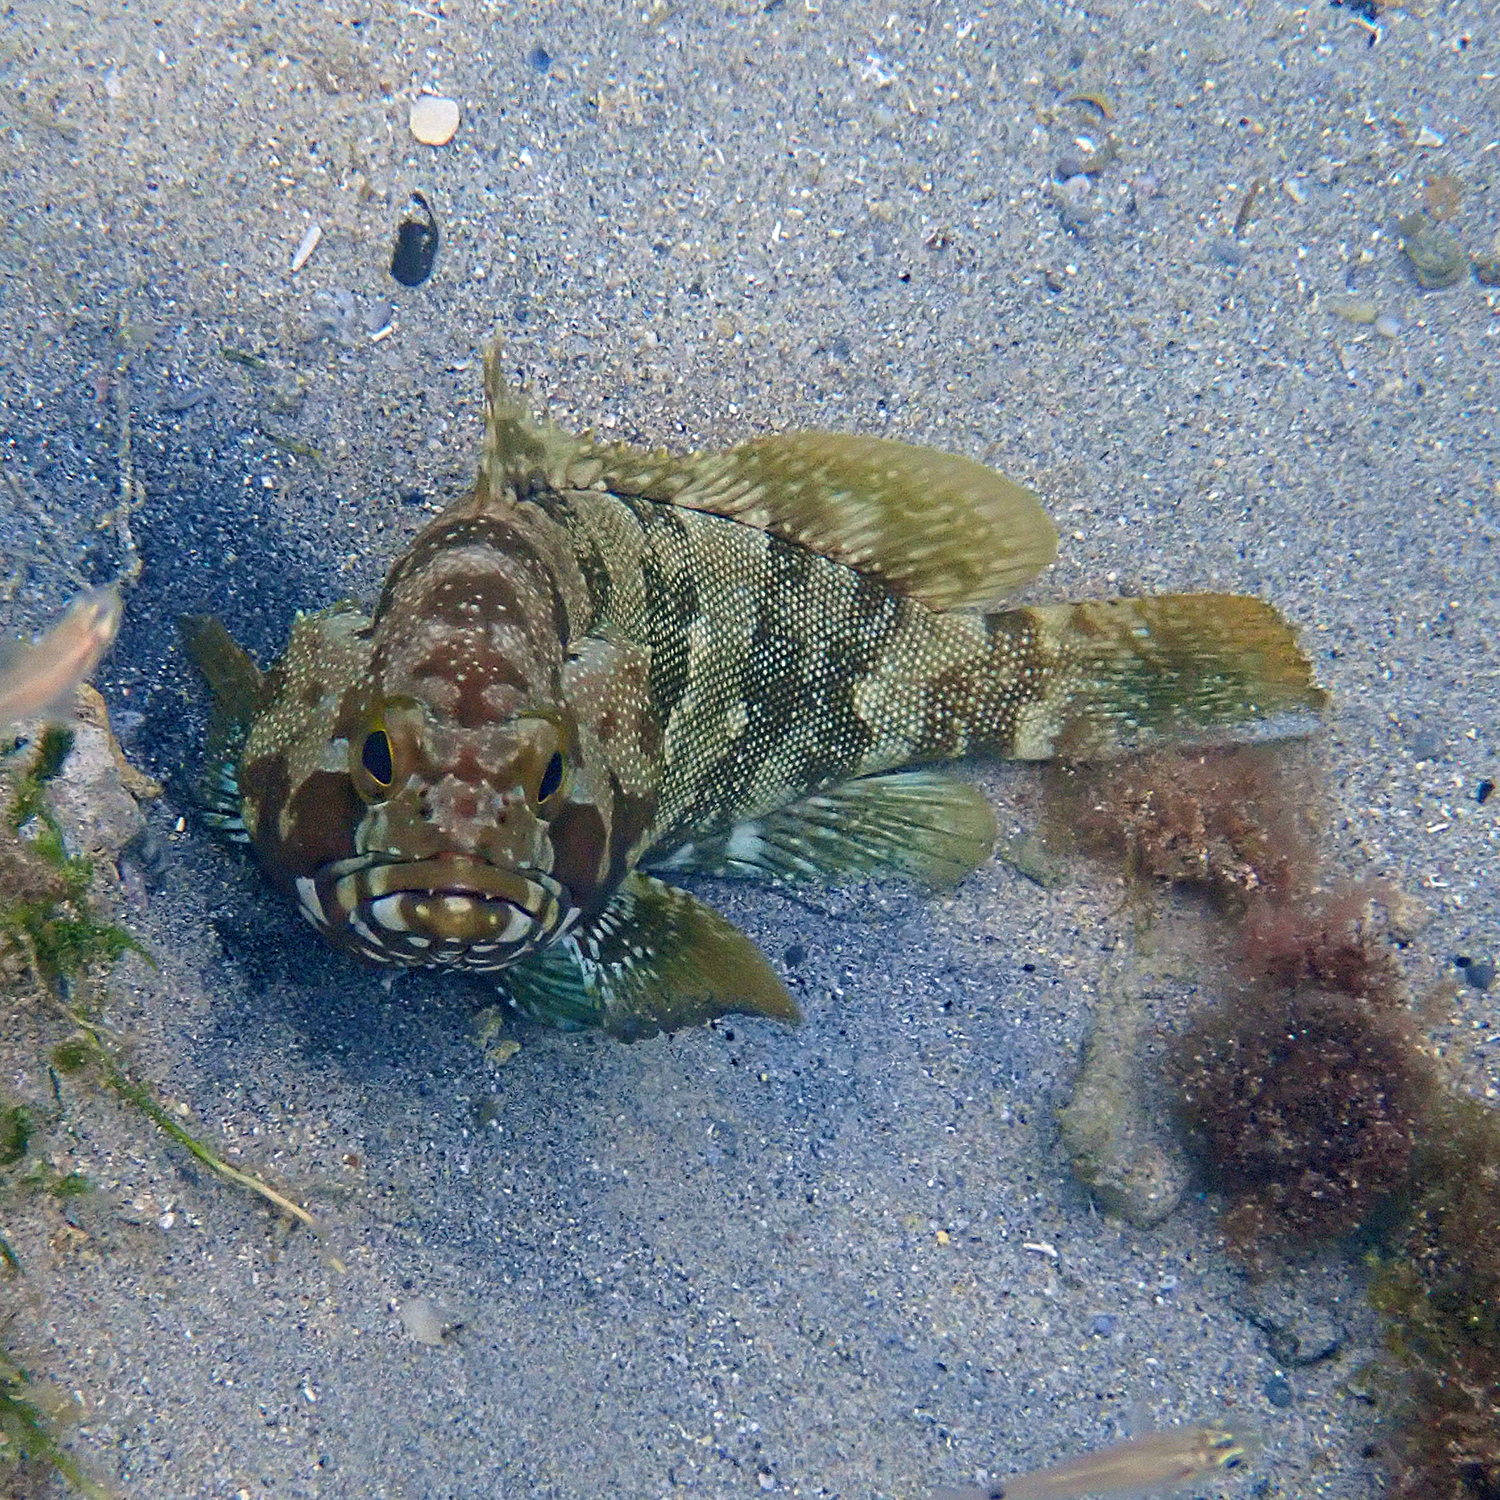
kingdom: Animalia
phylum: Chordata
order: Perciformes
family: Serranidae
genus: Epinephelus
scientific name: Epinephelus rivulatus
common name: Halfmoon grouper
